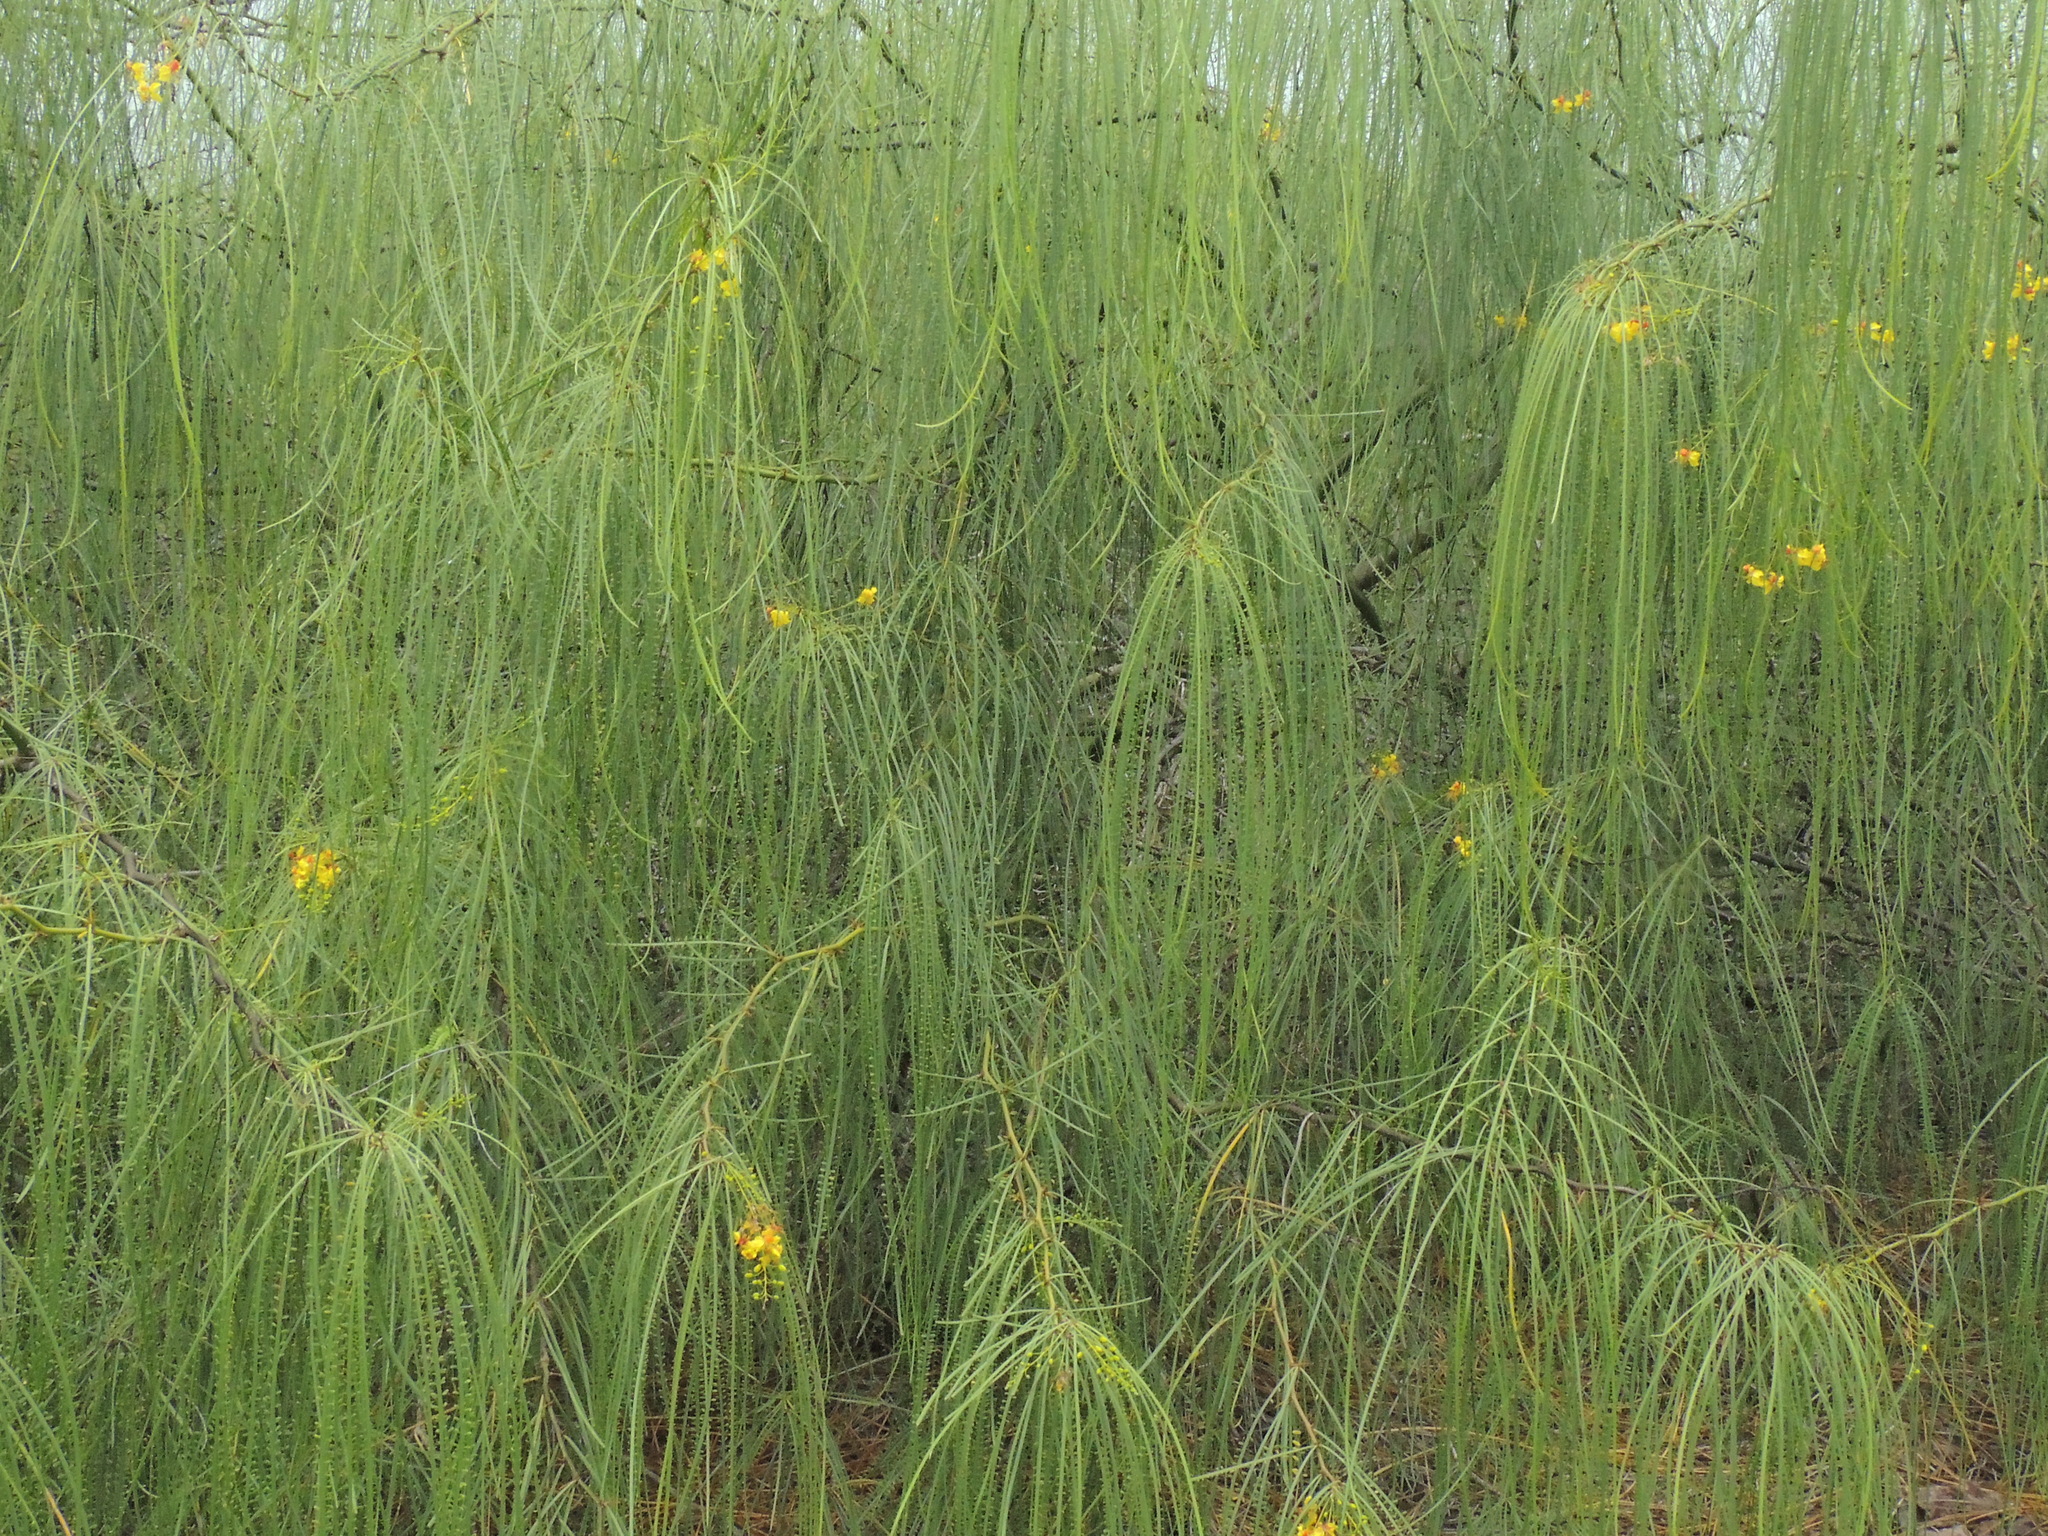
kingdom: Plantae
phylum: Tracheophyta
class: Magnoliopsida
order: Fabales
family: Fabaceae
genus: Parkinsonia
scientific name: Parkinsonia aculeata
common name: Jerusalem thorn
